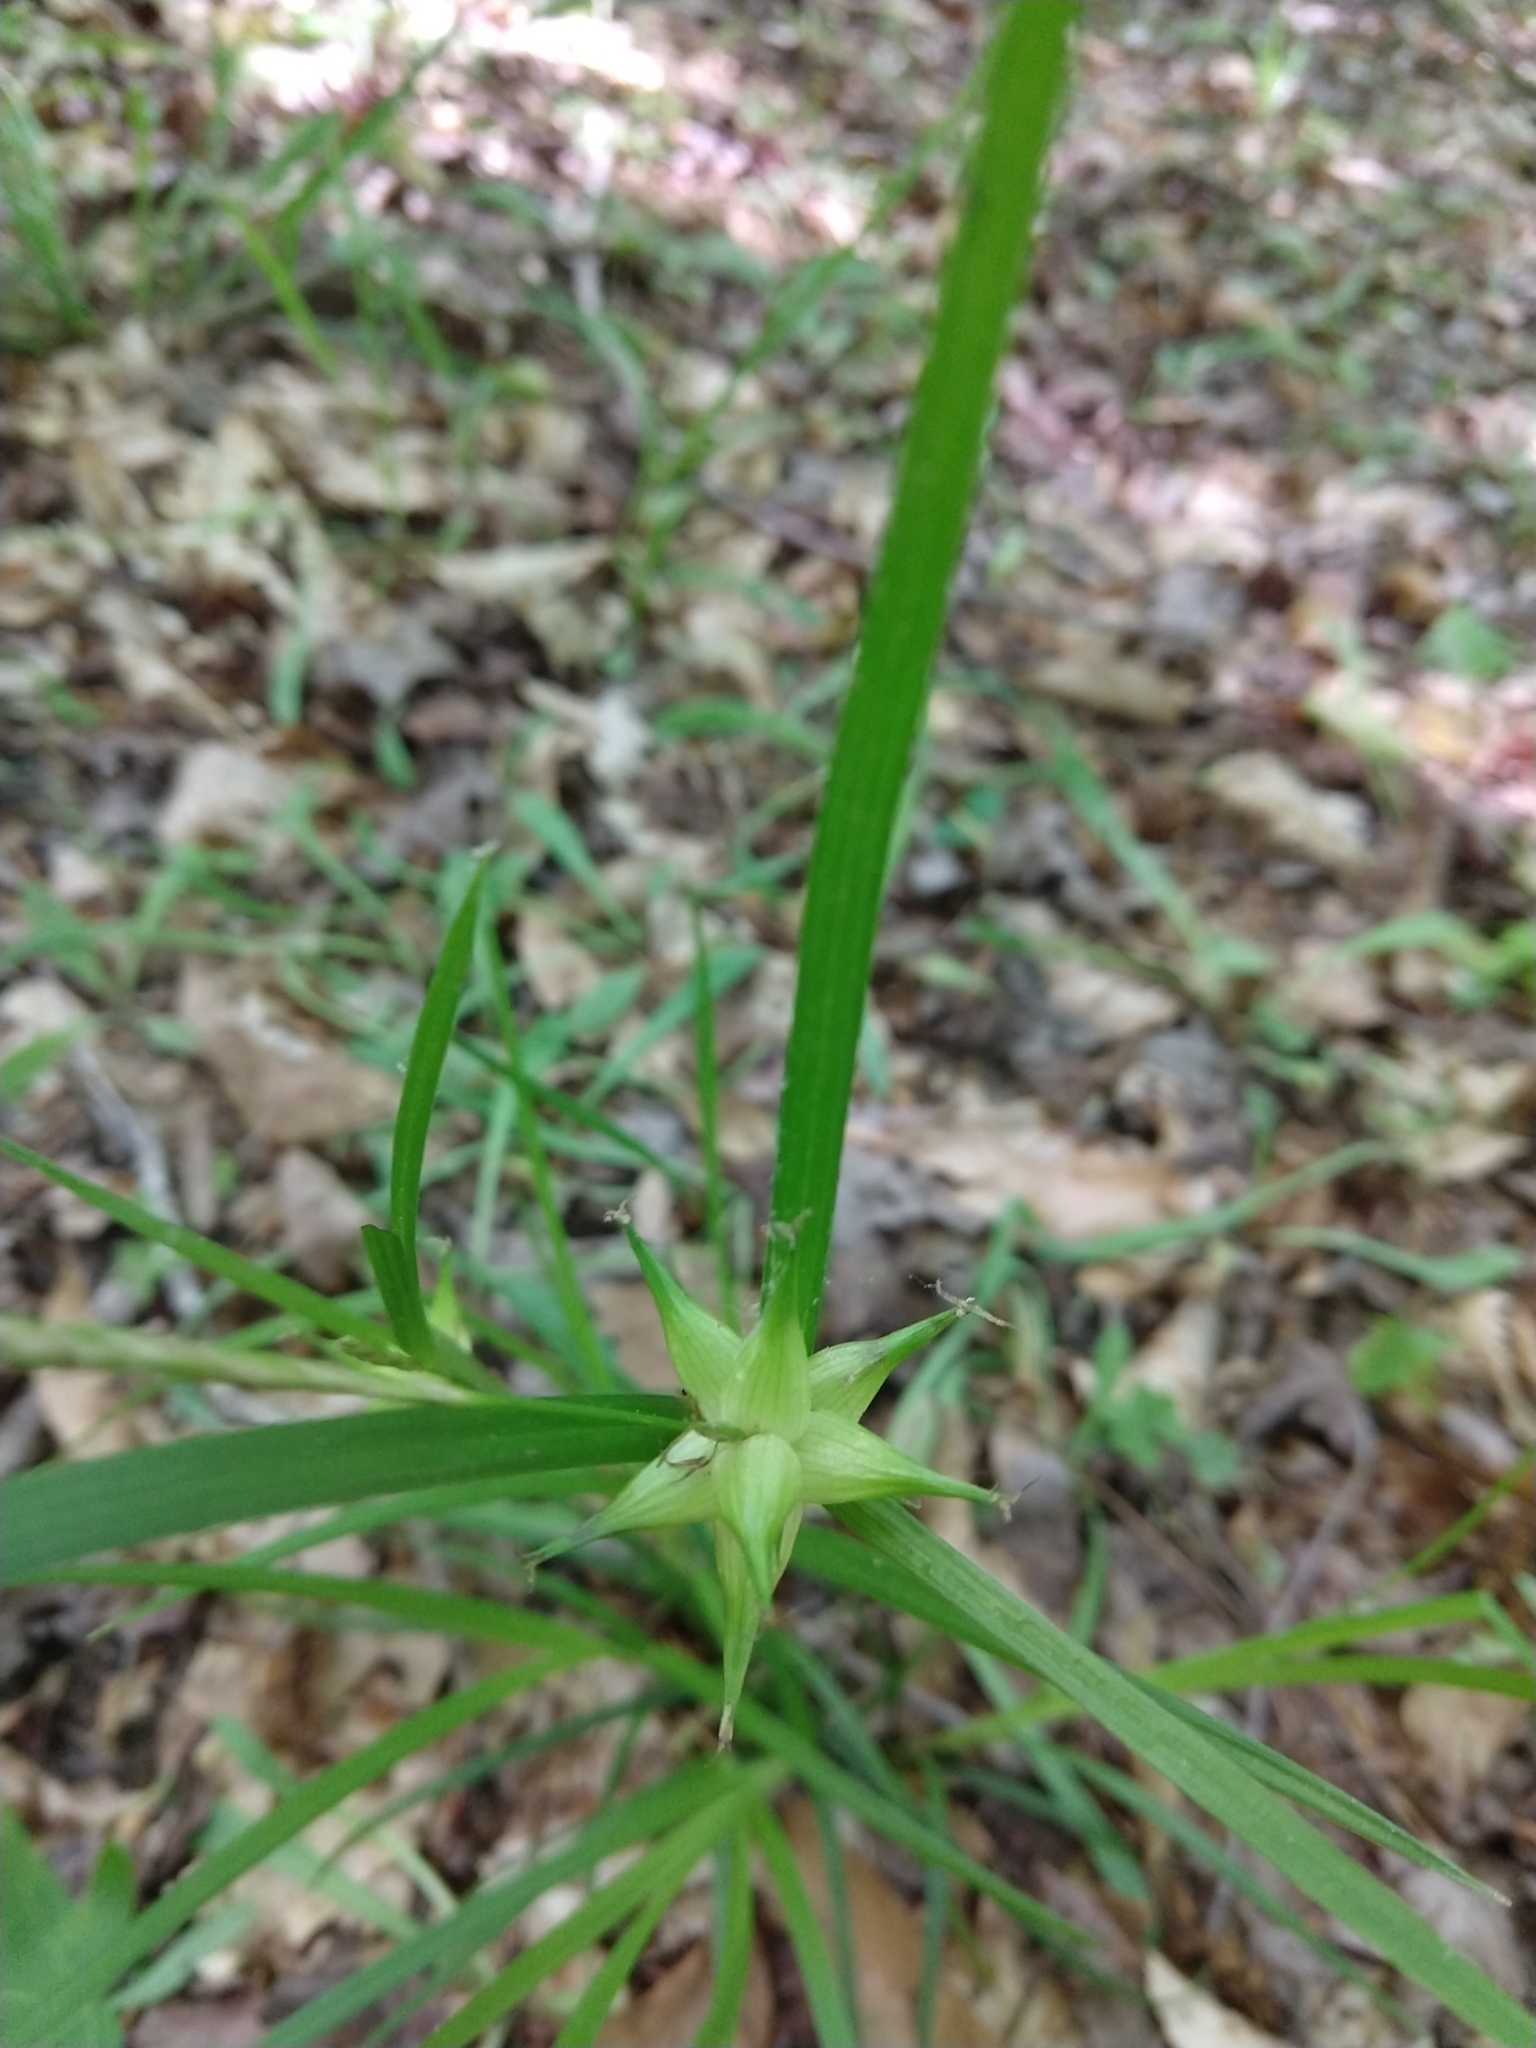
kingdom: Plantae
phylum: Tracheophyta
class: Liliopsida
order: Poales
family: Cyperaceae
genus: Carex
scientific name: Carex intumescens
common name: Greater bladder sedge
